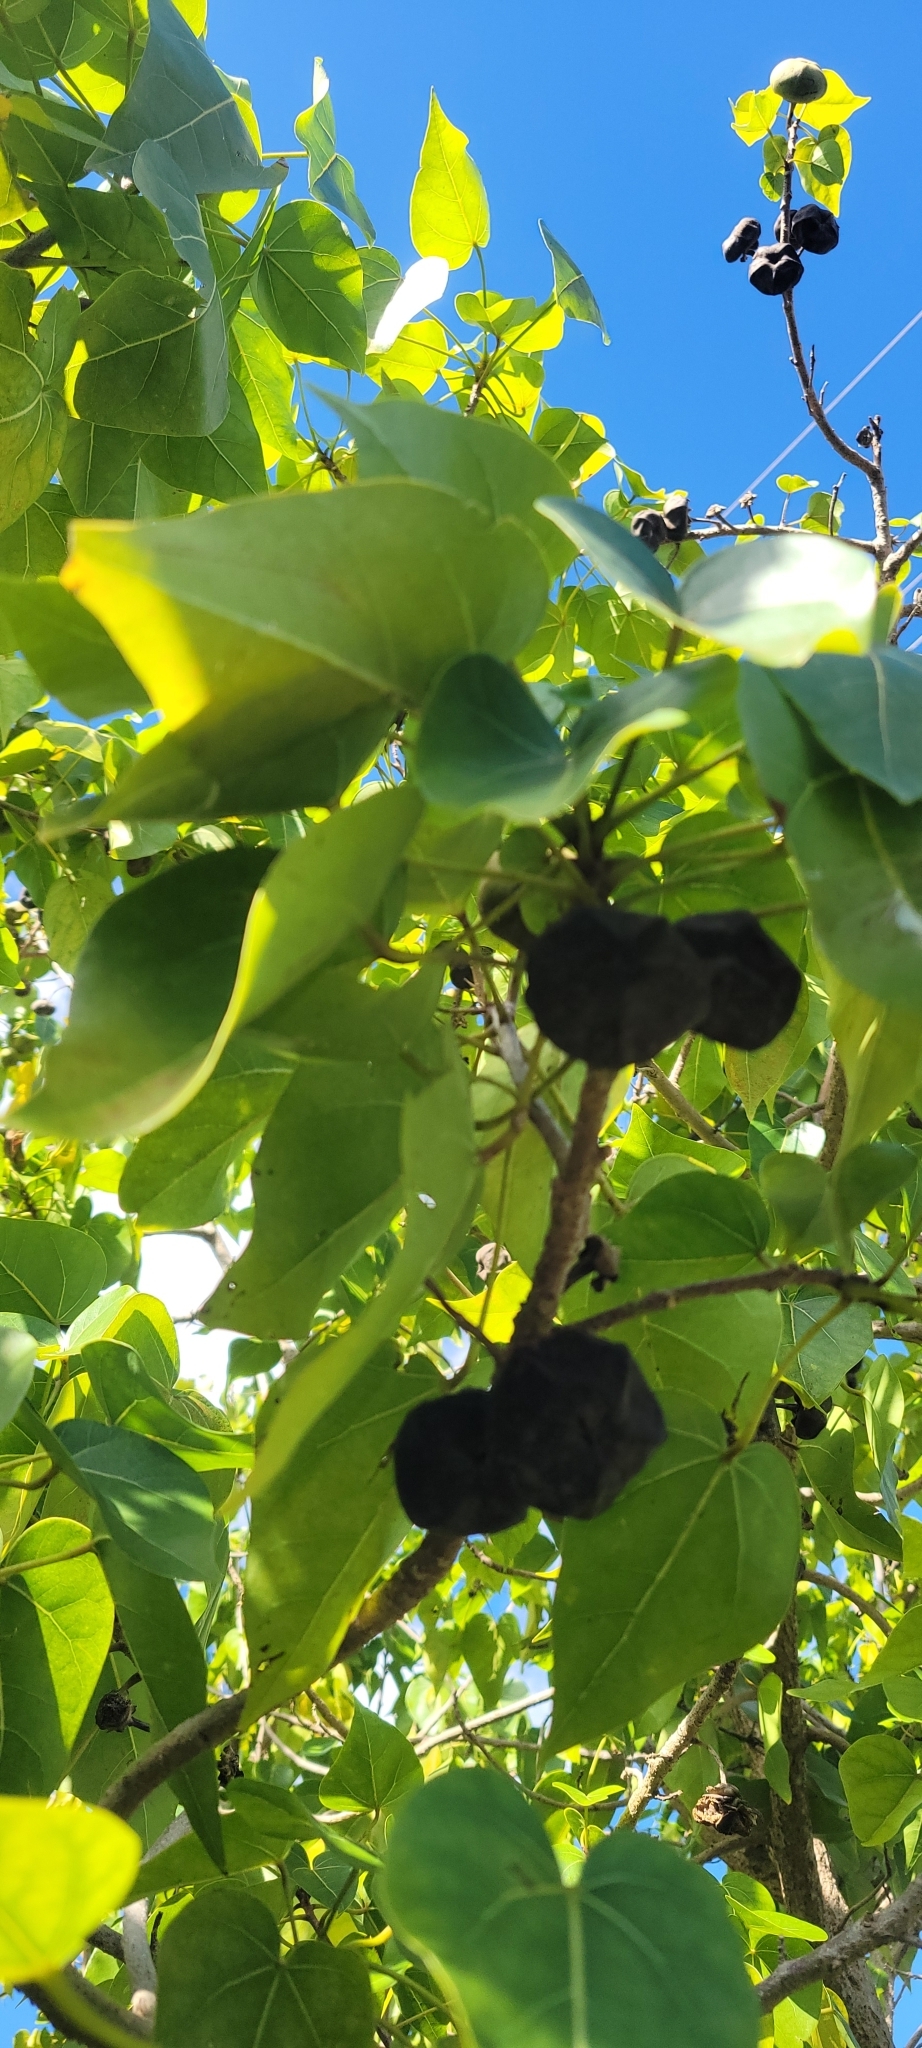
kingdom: Plantae
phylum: Tracheophyta
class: Magnoliopsida
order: Malvales
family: Malvaceae
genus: Thespesia
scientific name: Thespesia populnea
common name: Seaside mahoe
